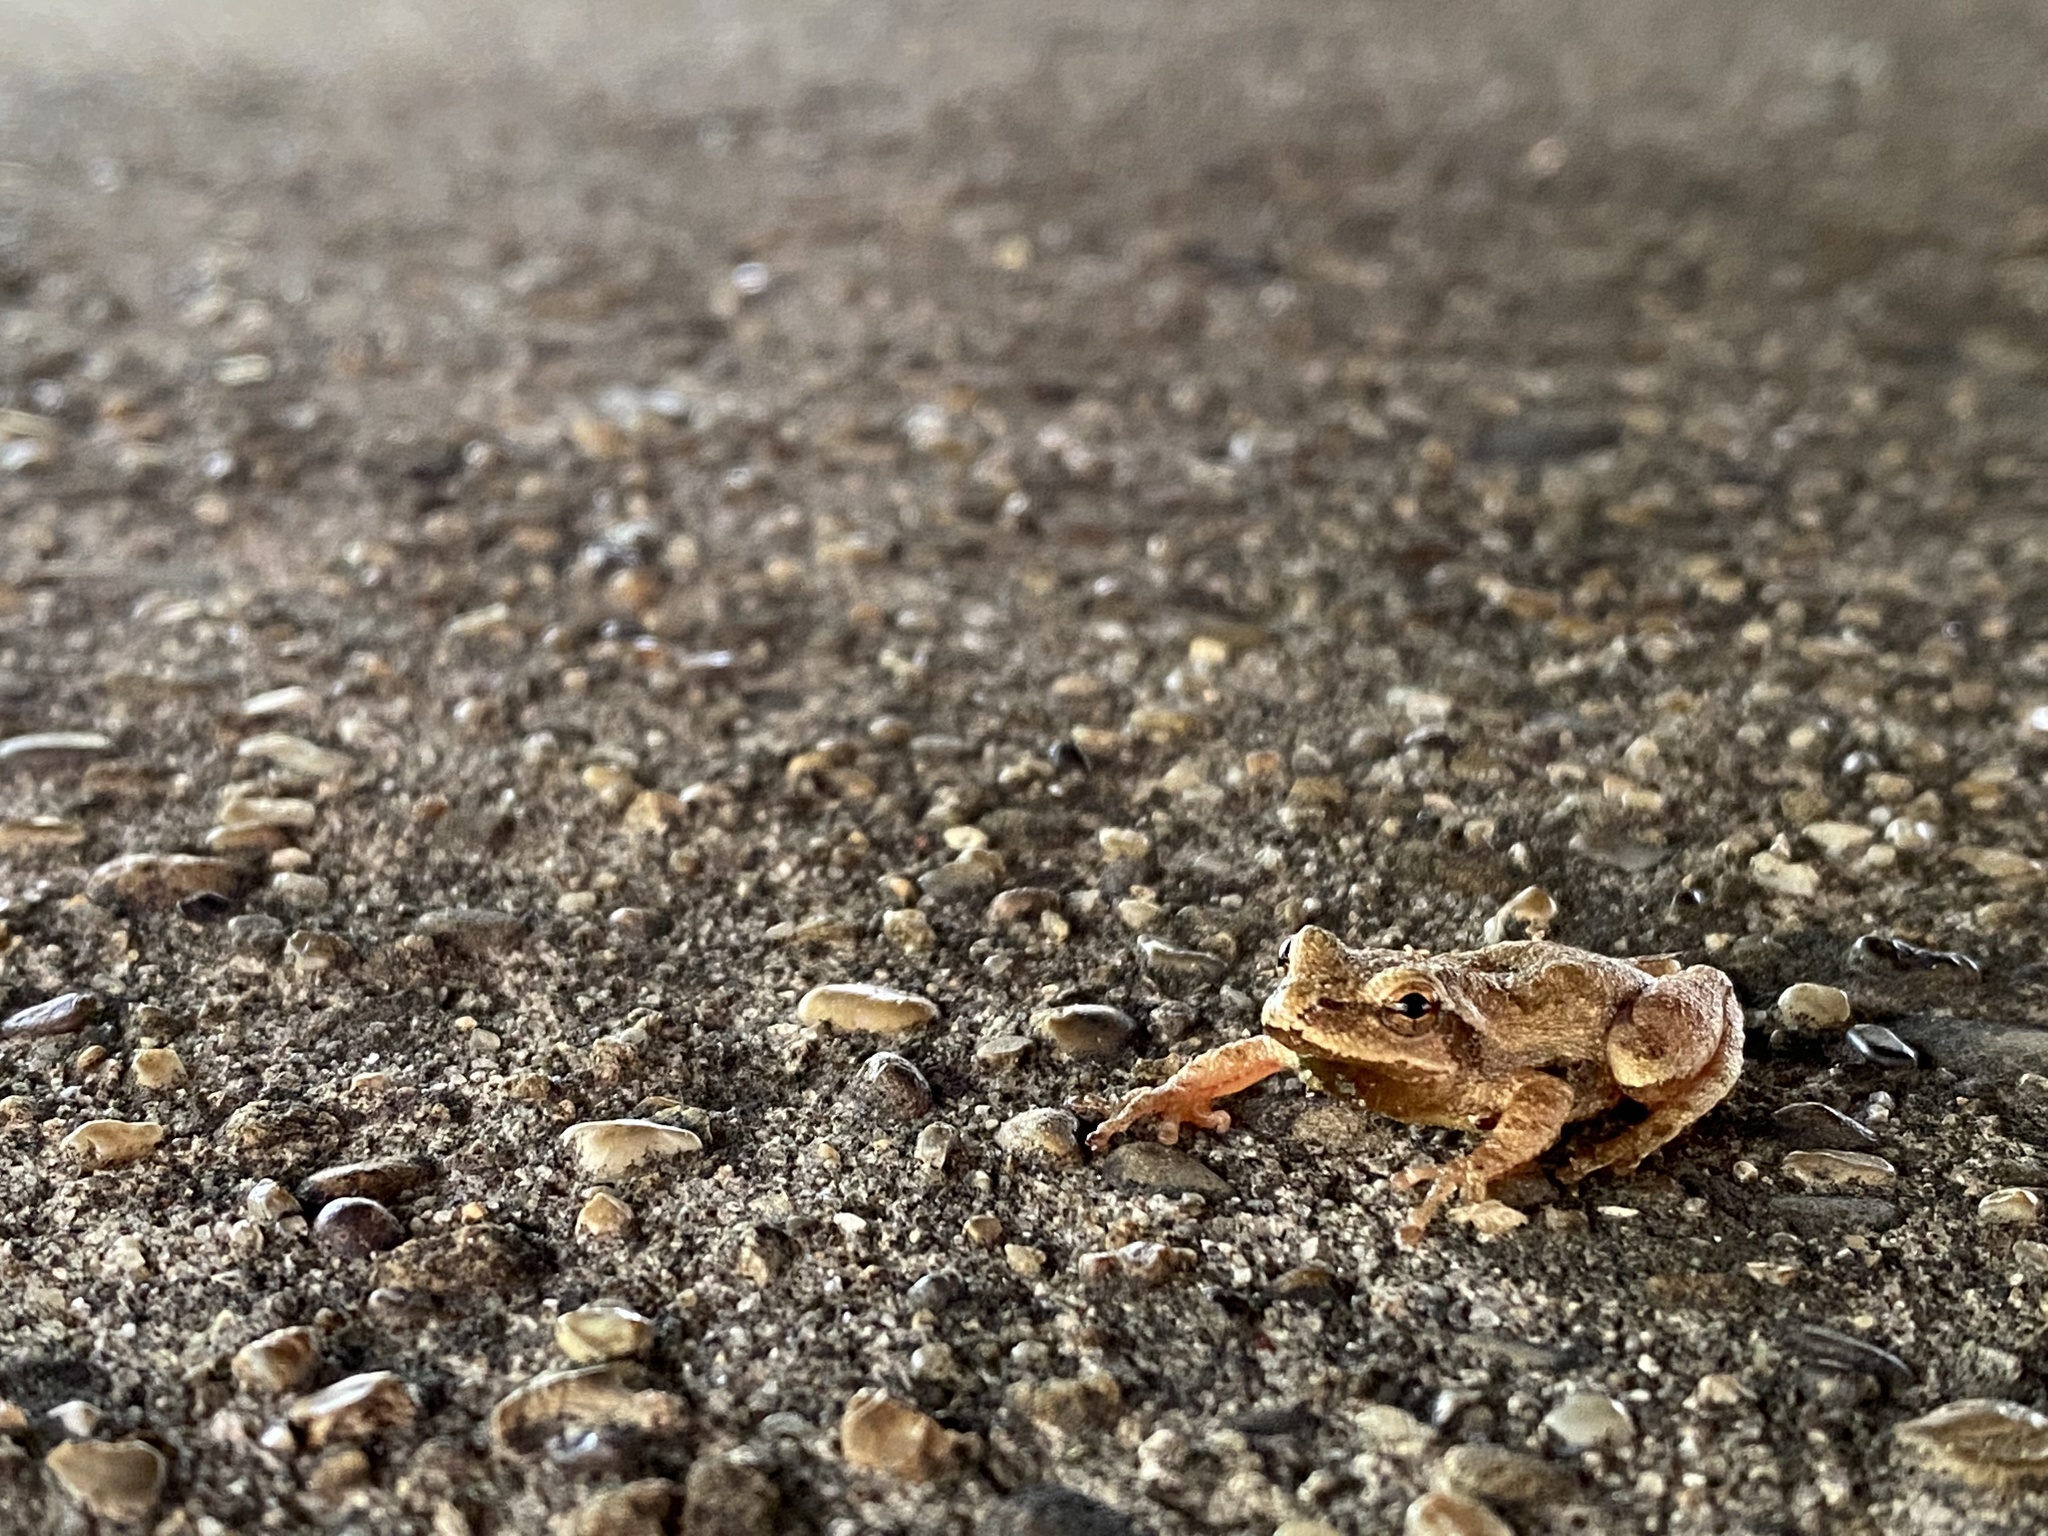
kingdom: Animalia
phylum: Chordata
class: Amphibia
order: Anura
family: Hylidae
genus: Pseudacris
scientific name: Pseudacris crucifer
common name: Spring peeper
